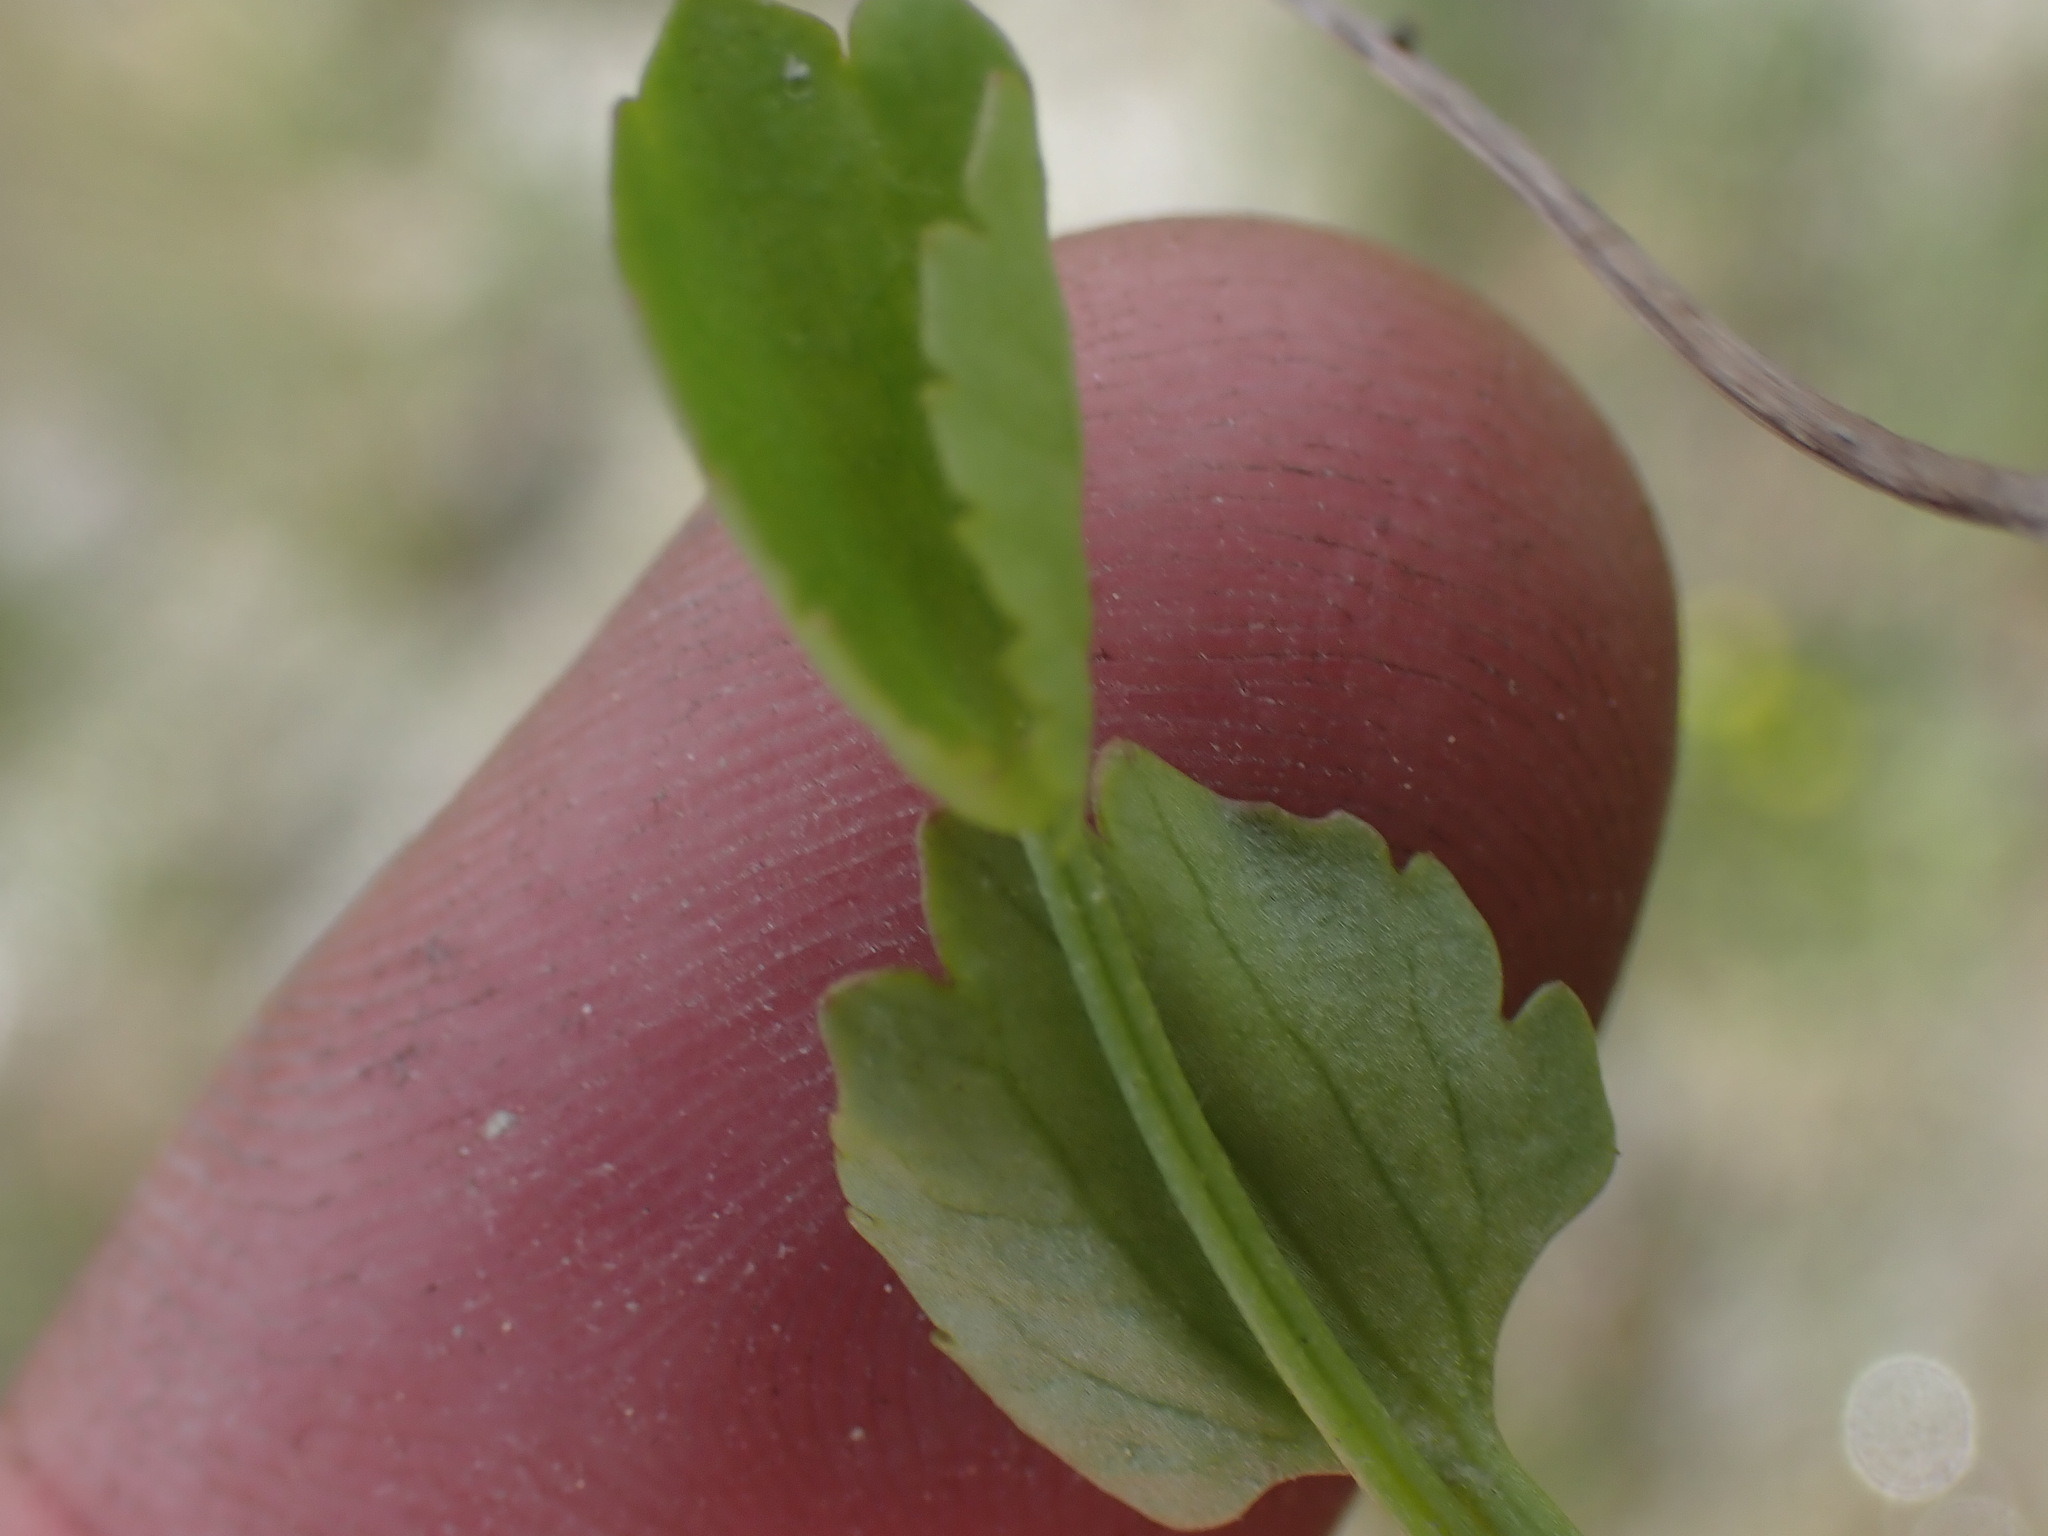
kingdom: Plantae
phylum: Tracheophyta
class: Magnoliopsida
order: Ranunculales
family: Ranunculaceae
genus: Halerpestes
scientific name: Halerpestes cymbalaria
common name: Seaside crowfoot
